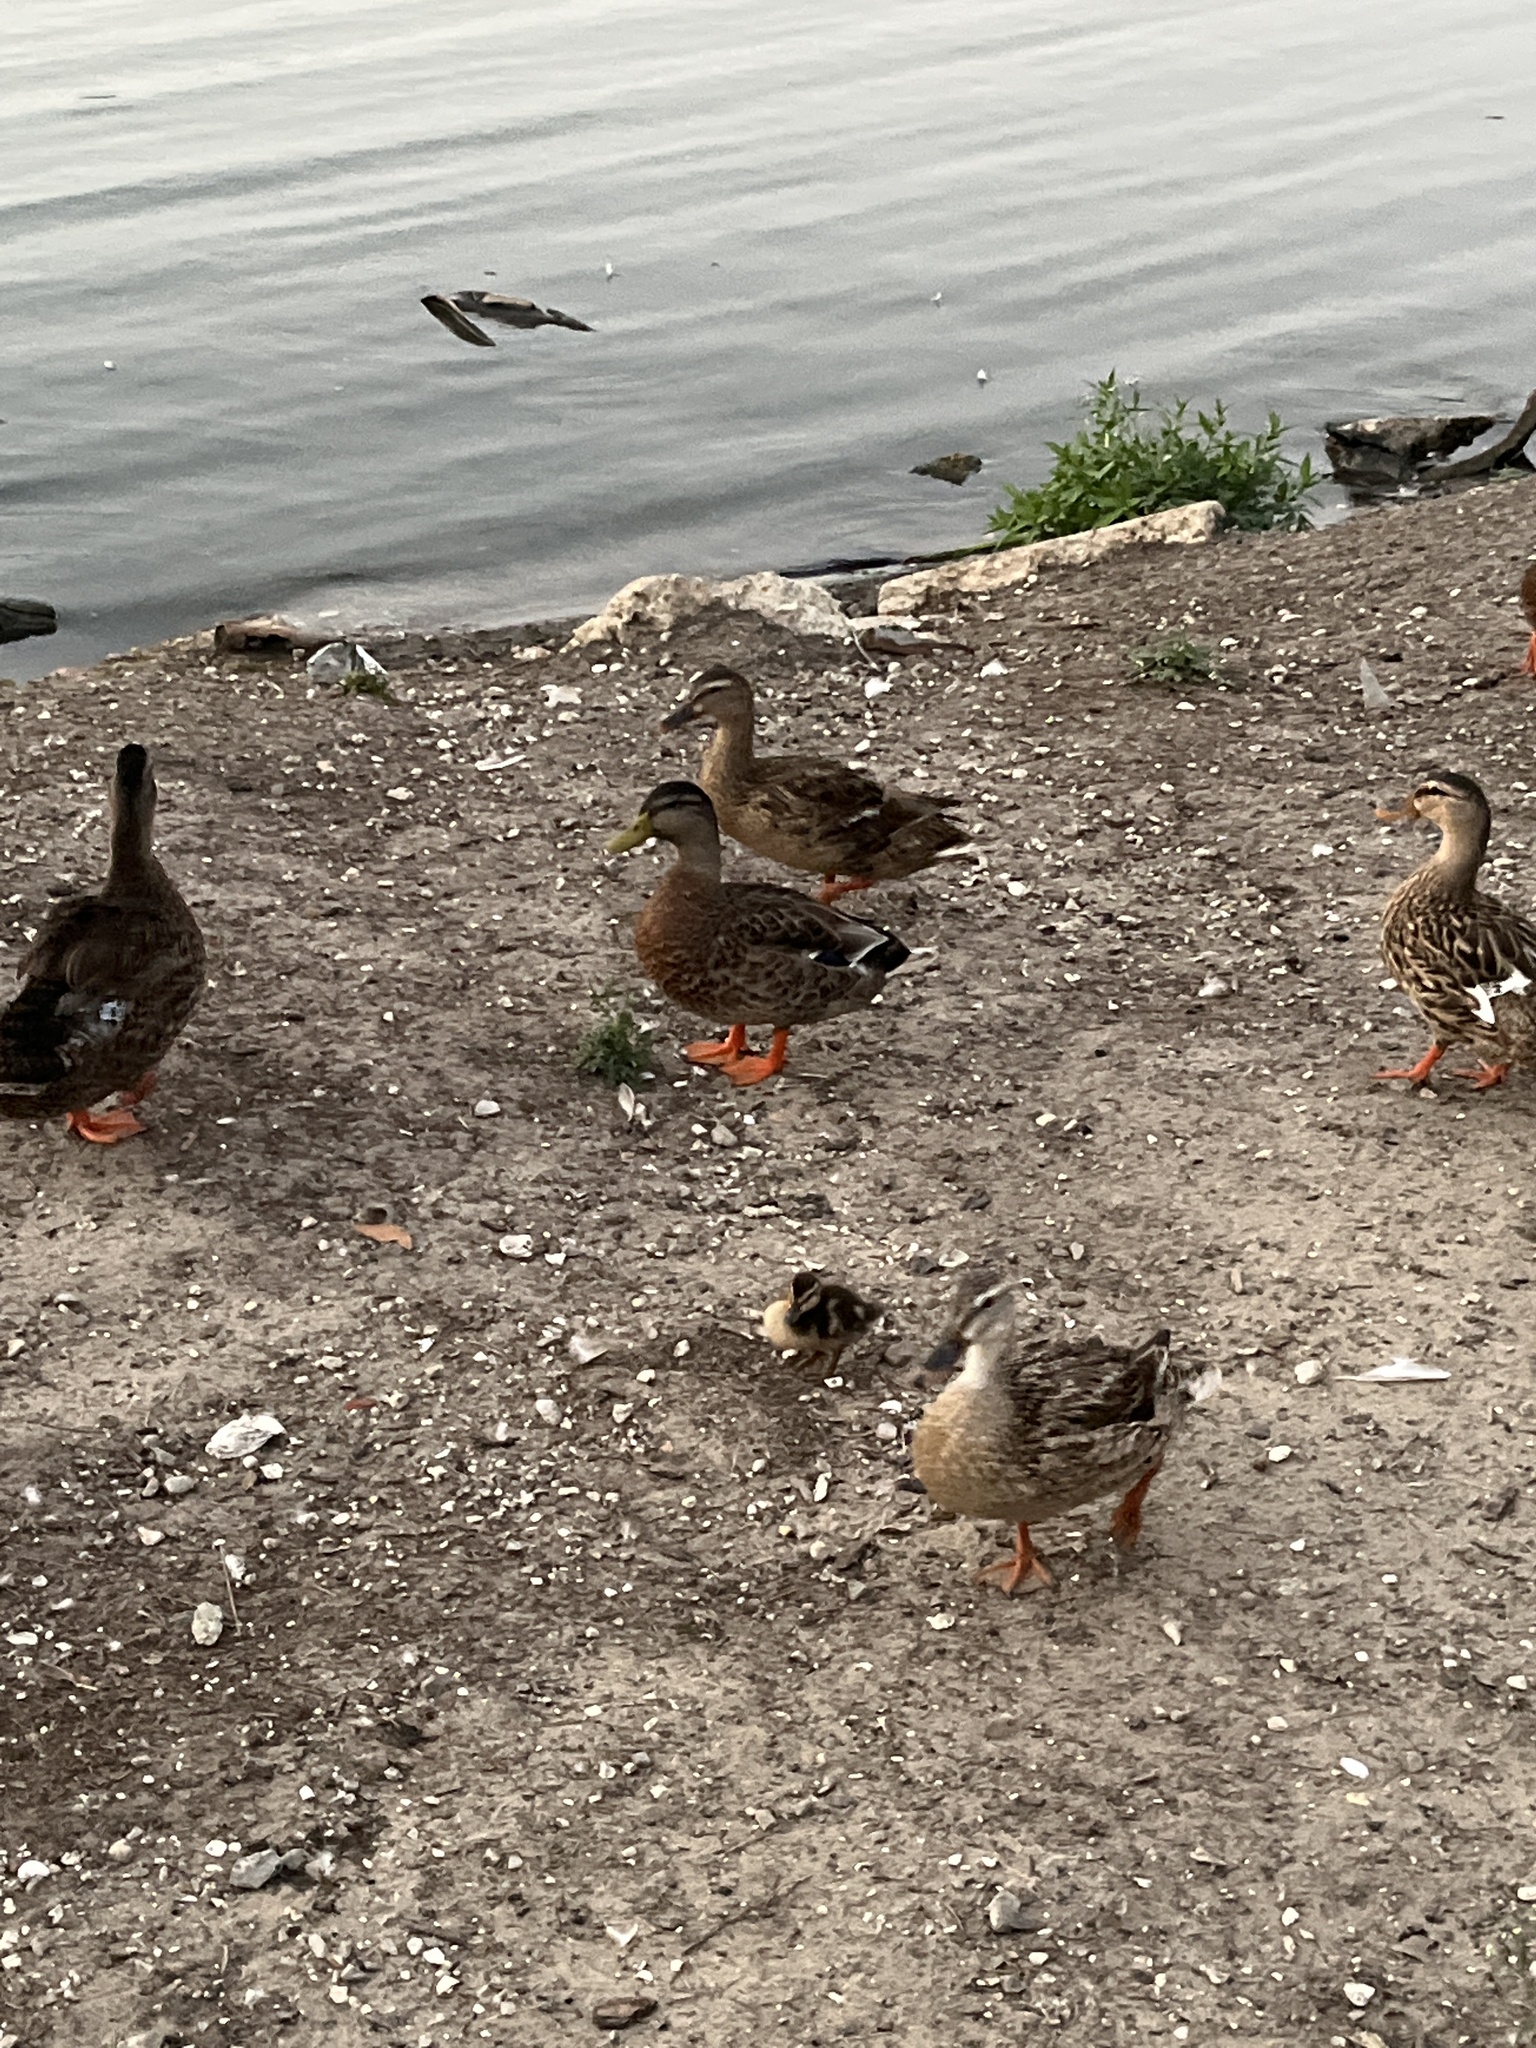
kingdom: Animalia
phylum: Chordata
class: Aves
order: Anseriformes
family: Anatidae
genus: Anas
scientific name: Anas platyrhynchos
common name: Mallard
